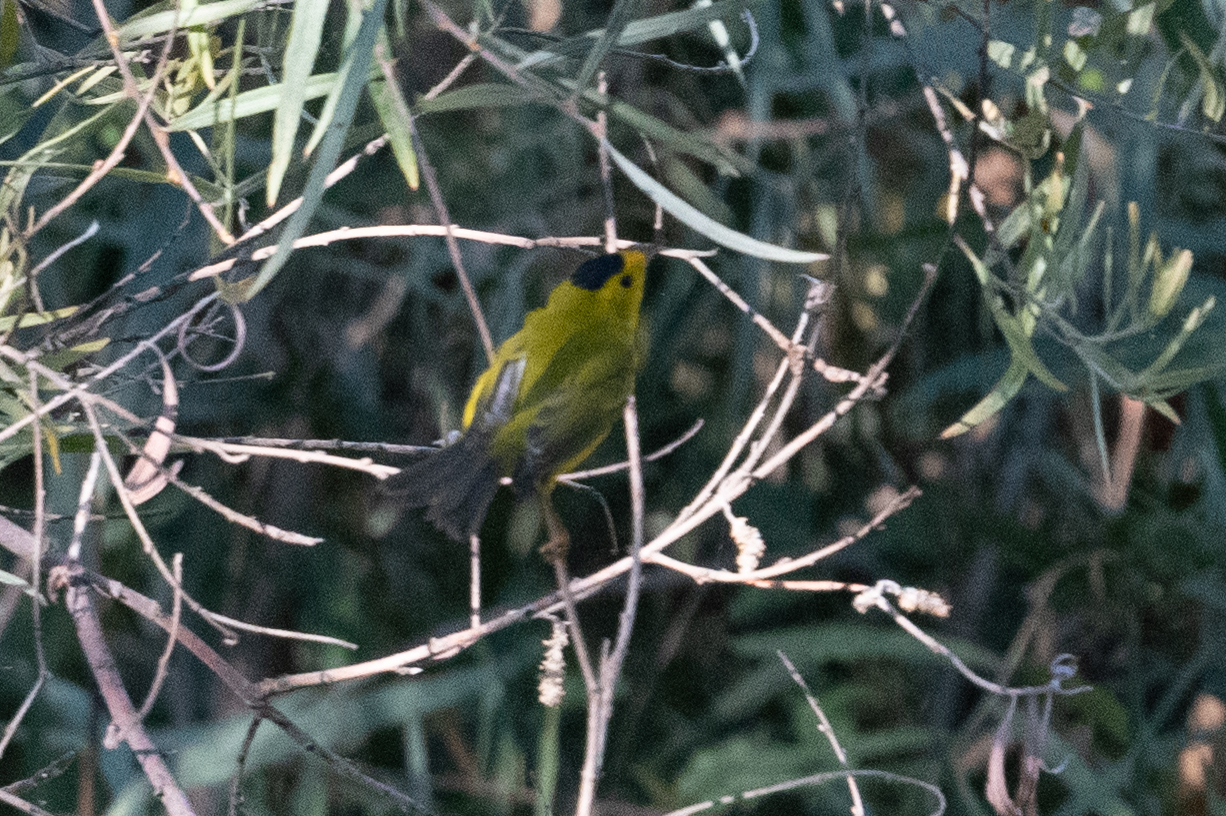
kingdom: Animalia
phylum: Chordata
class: Aves
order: Passeriformes
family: Parulidae
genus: Cardellina
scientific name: Cardellina pusilla
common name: Wilson's warbler
